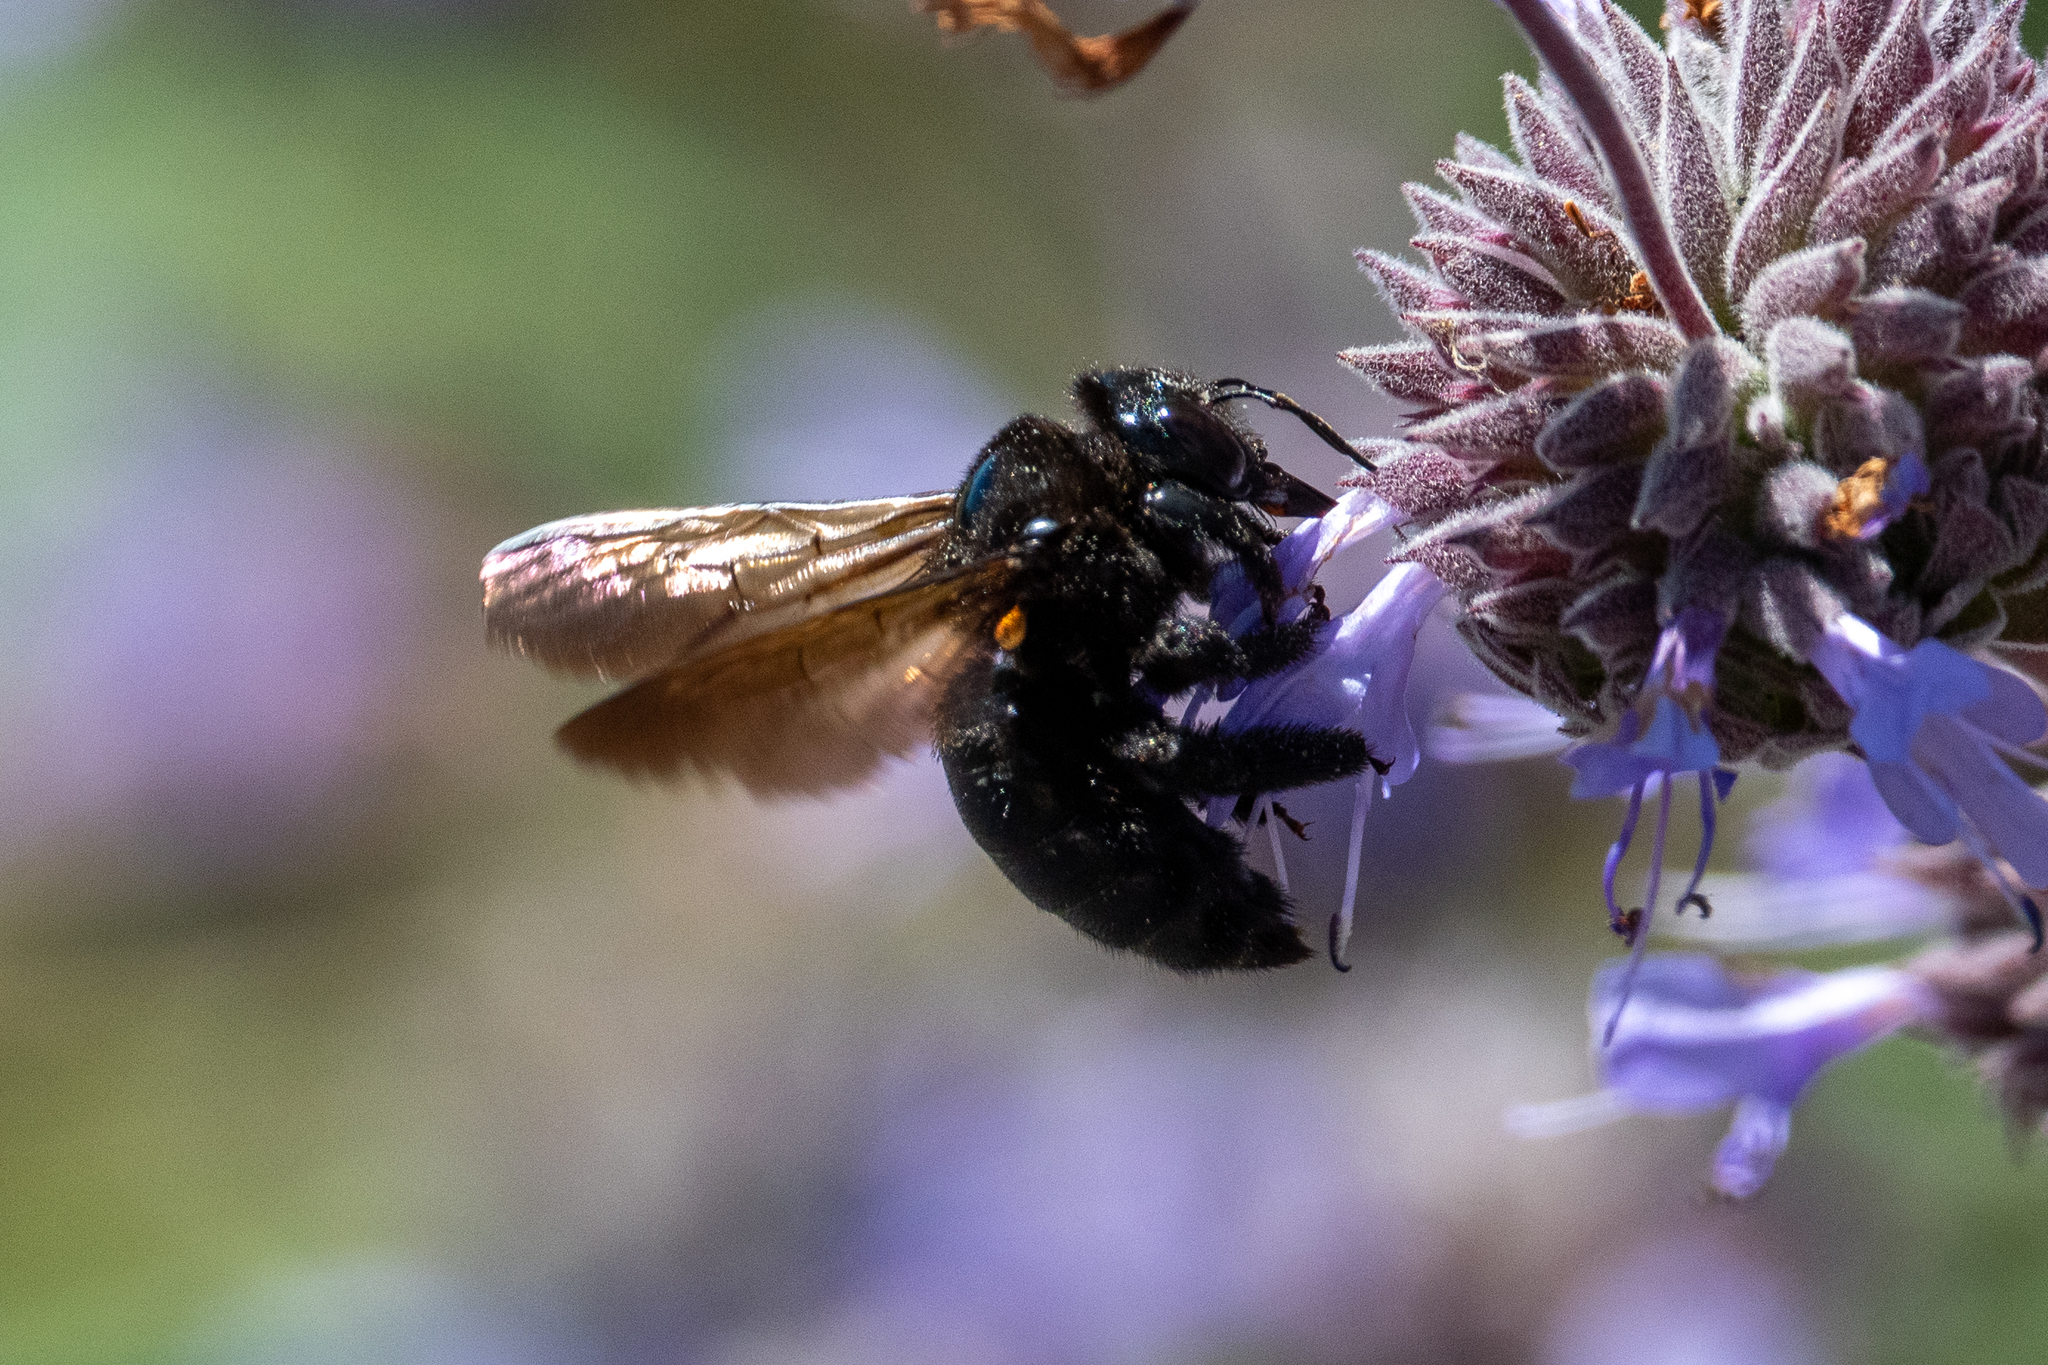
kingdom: Animalia
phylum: Arthropoda
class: Insecta
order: Hymenoptera
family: Apidae
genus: Xylocopa
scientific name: Xylocopa sonorina
